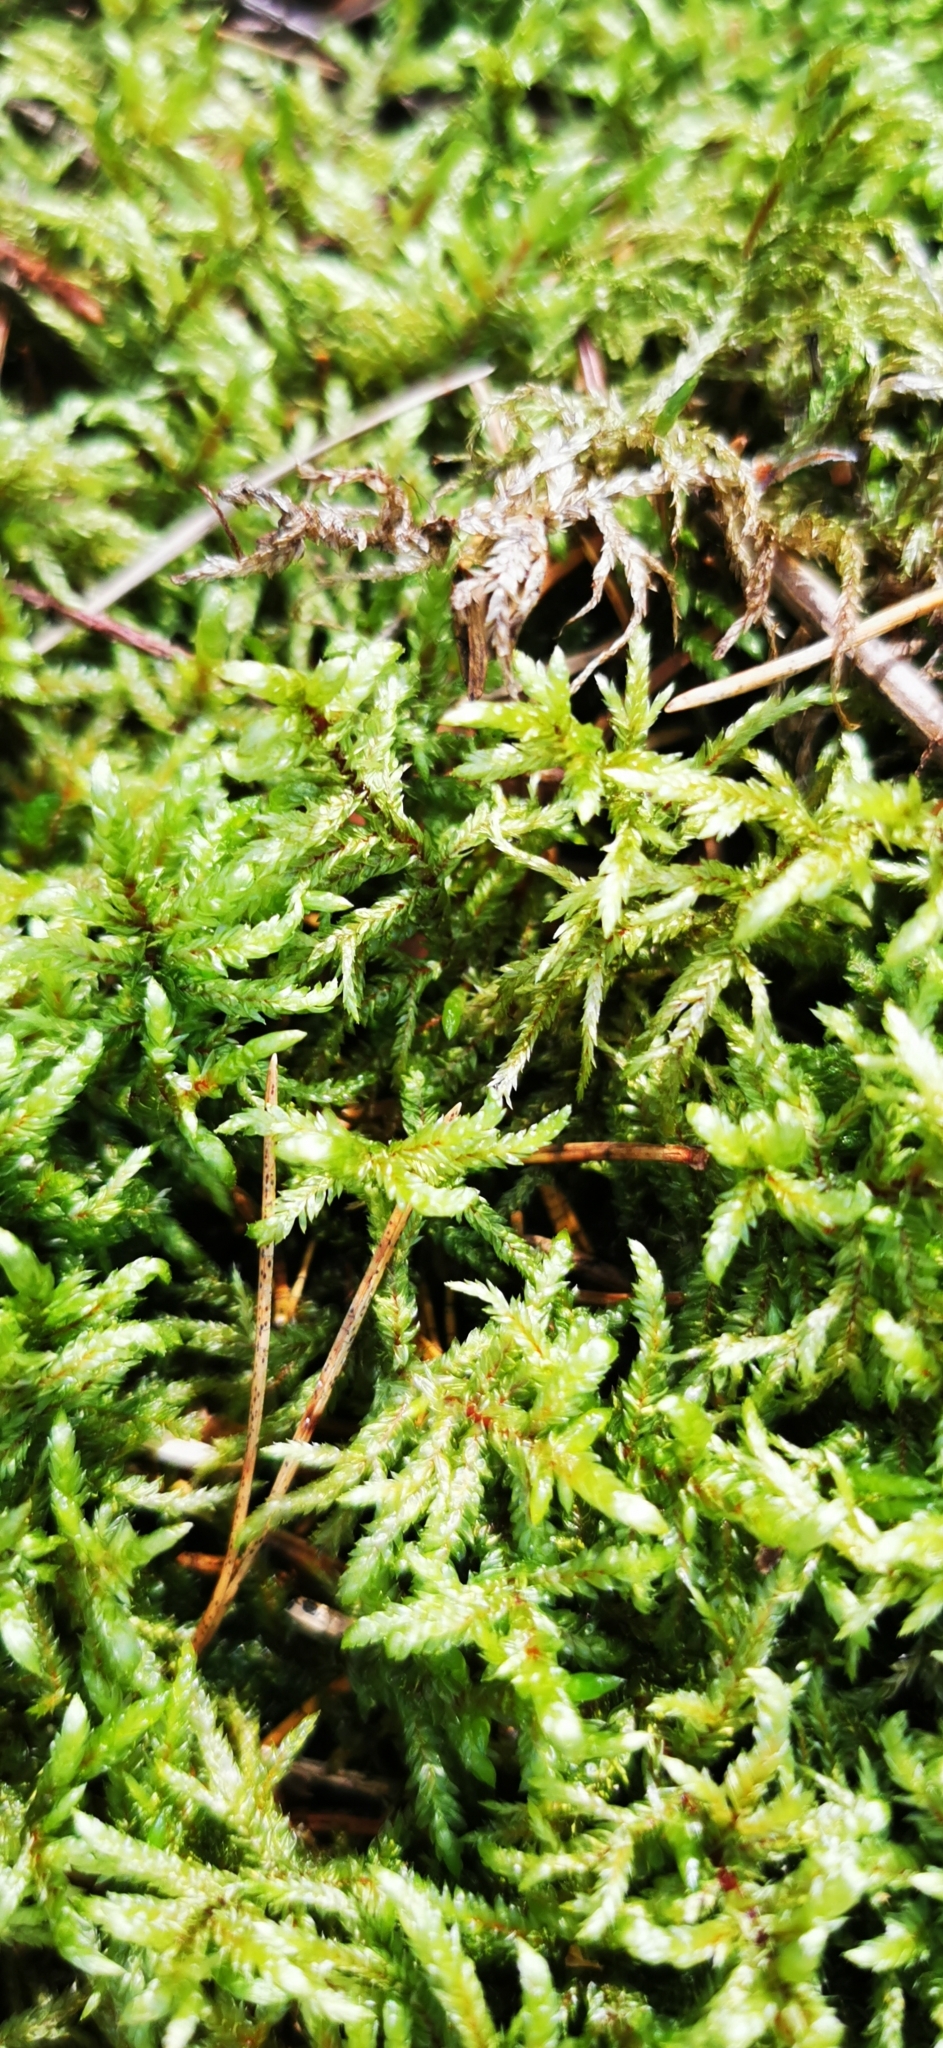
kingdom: Plantae
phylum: Bryophyta
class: Bryopsida
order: Hypnales
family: Hylocomiaceae
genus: Pleurozium
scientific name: Pleurozium schreberi
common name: Red-stemmed feather moss
